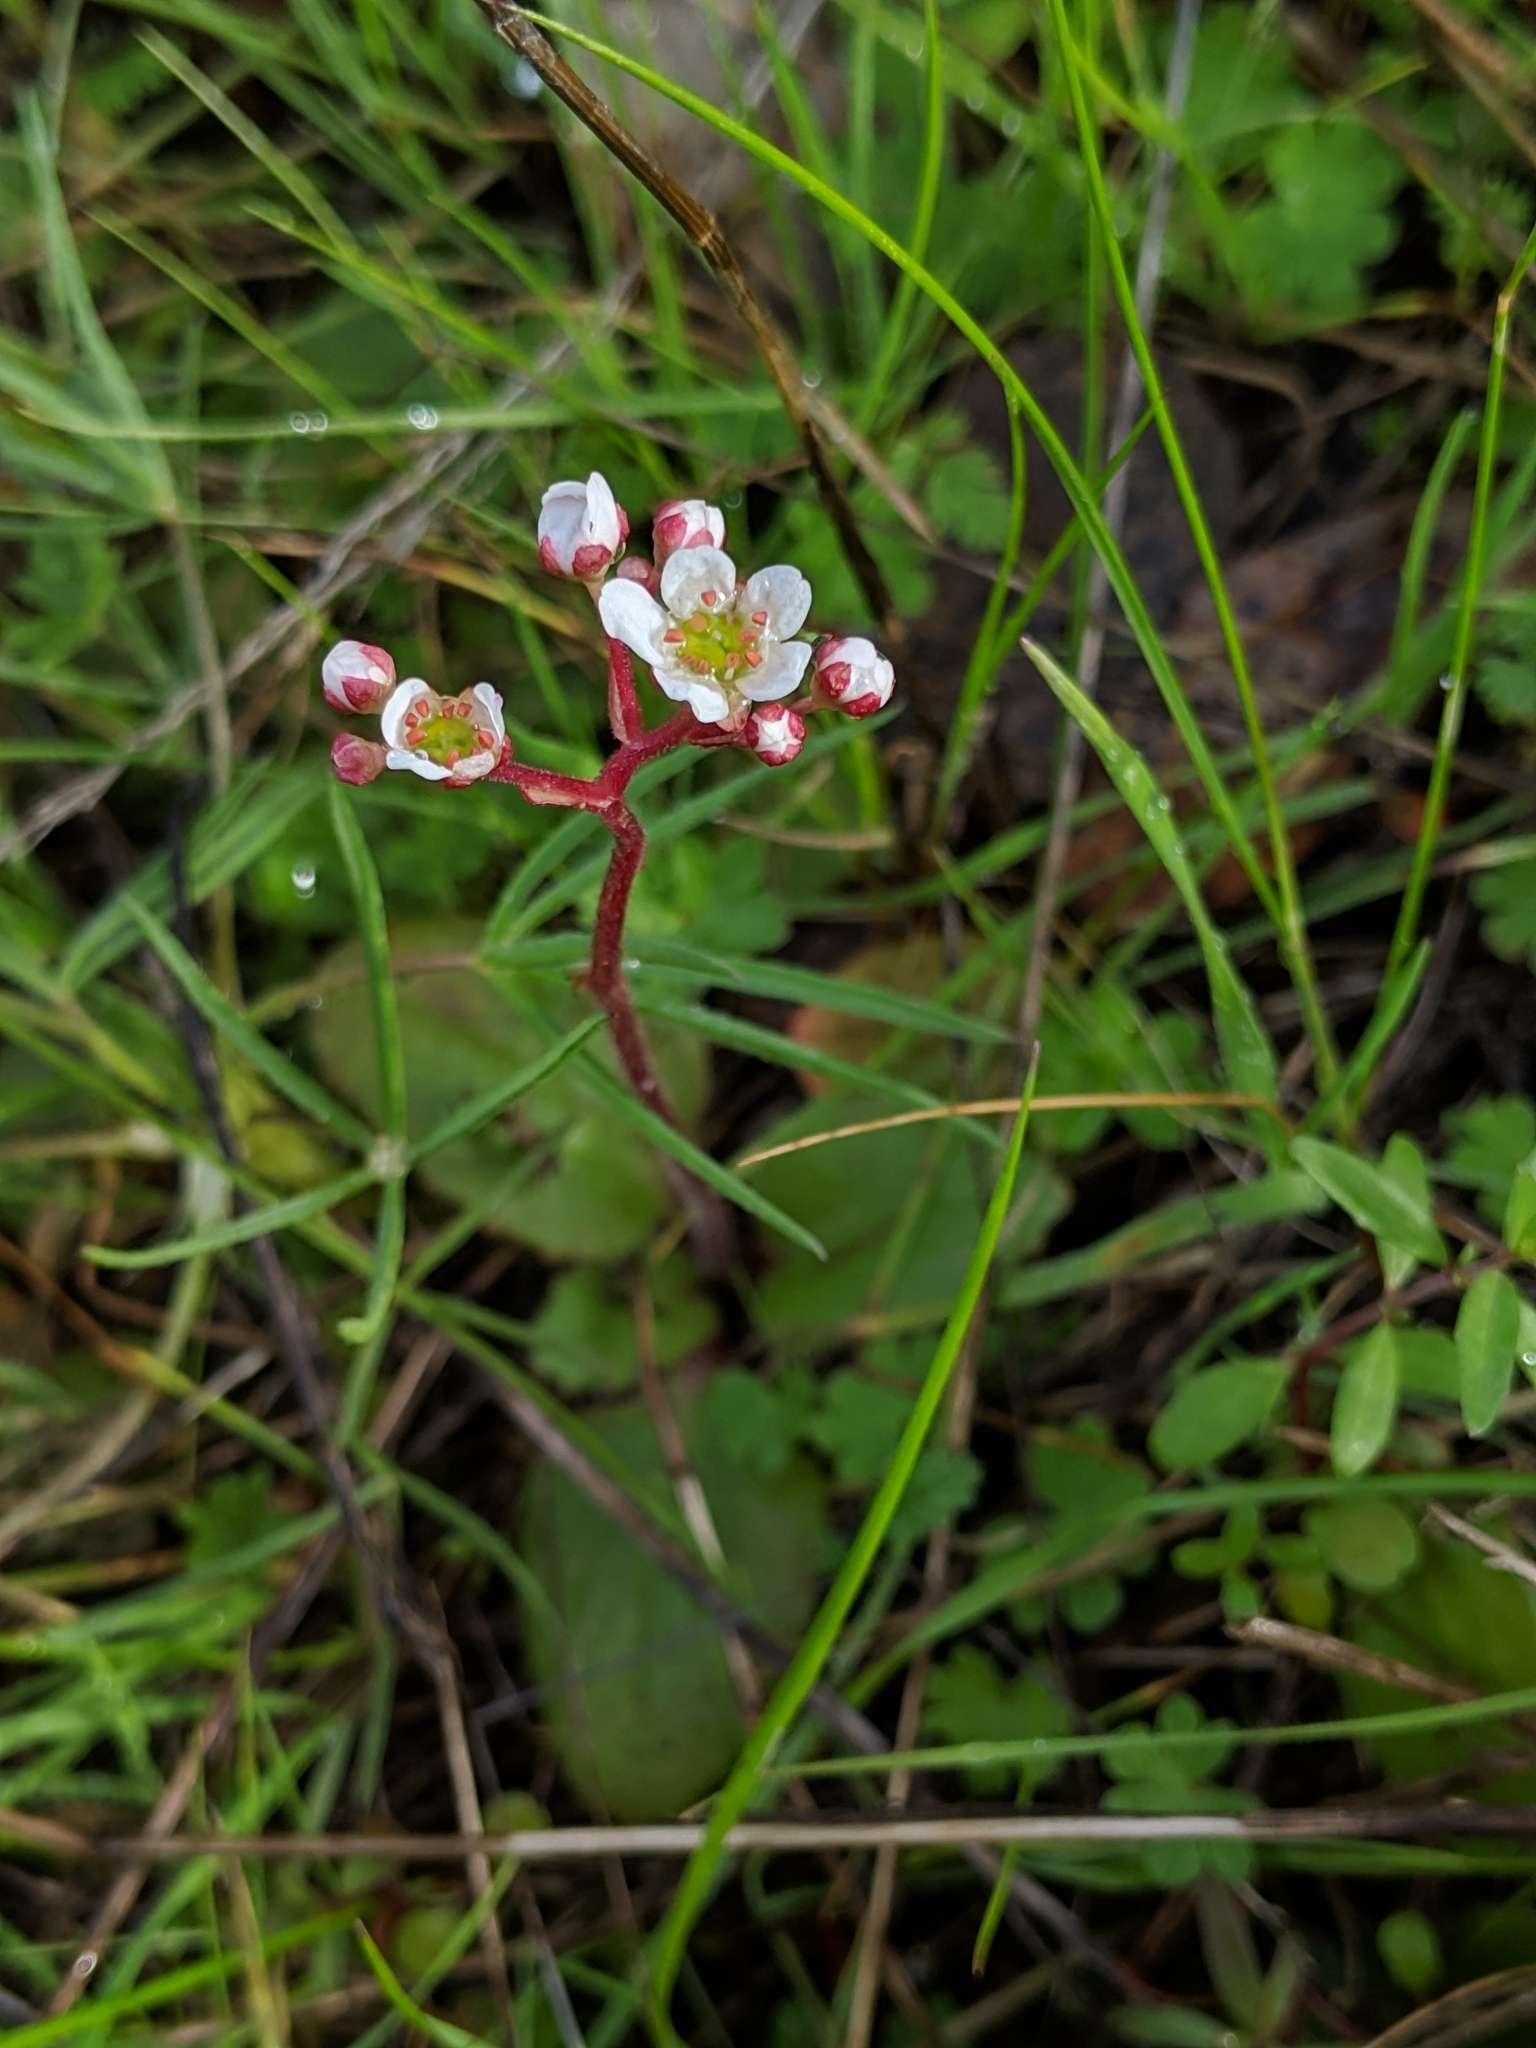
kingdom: Plantae
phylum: Tracheophyta
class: Magnoliopsida
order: Saxifragales
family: Saxifragaceae
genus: Micranthes
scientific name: Micranthes californica
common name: California saxifrage
